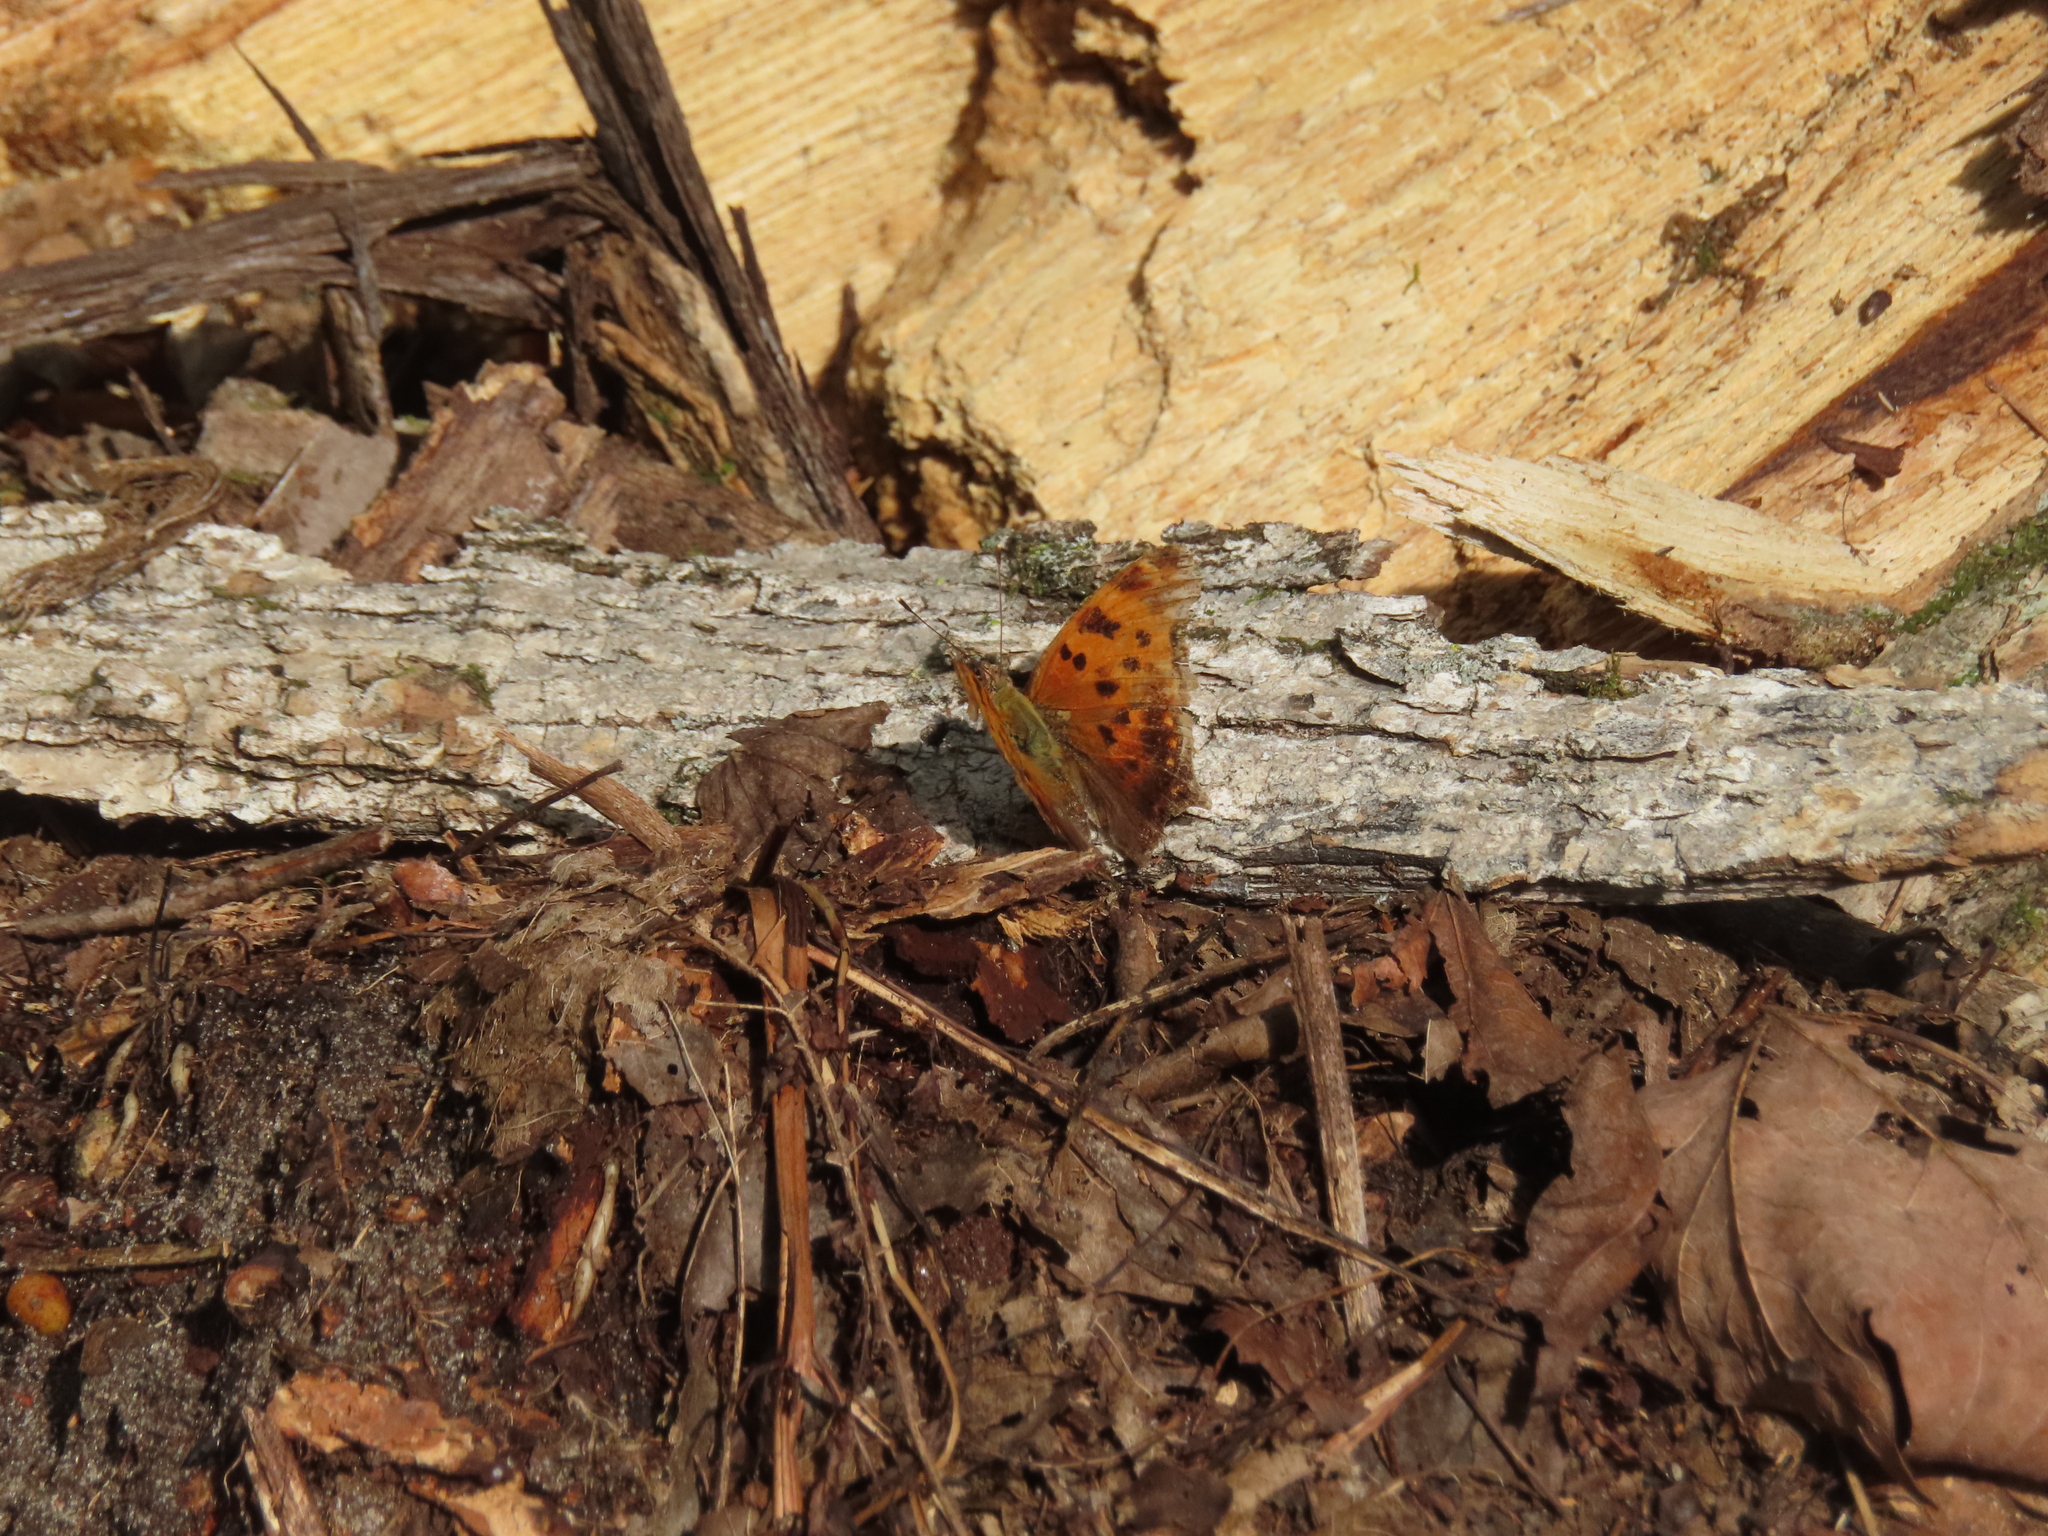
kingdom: Animalia
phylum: Arthropoda
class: Insecta
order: Lepidoptera
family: Nymphalidae
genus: Polygonia
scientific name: Polygonia comma
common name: Eastern comma
